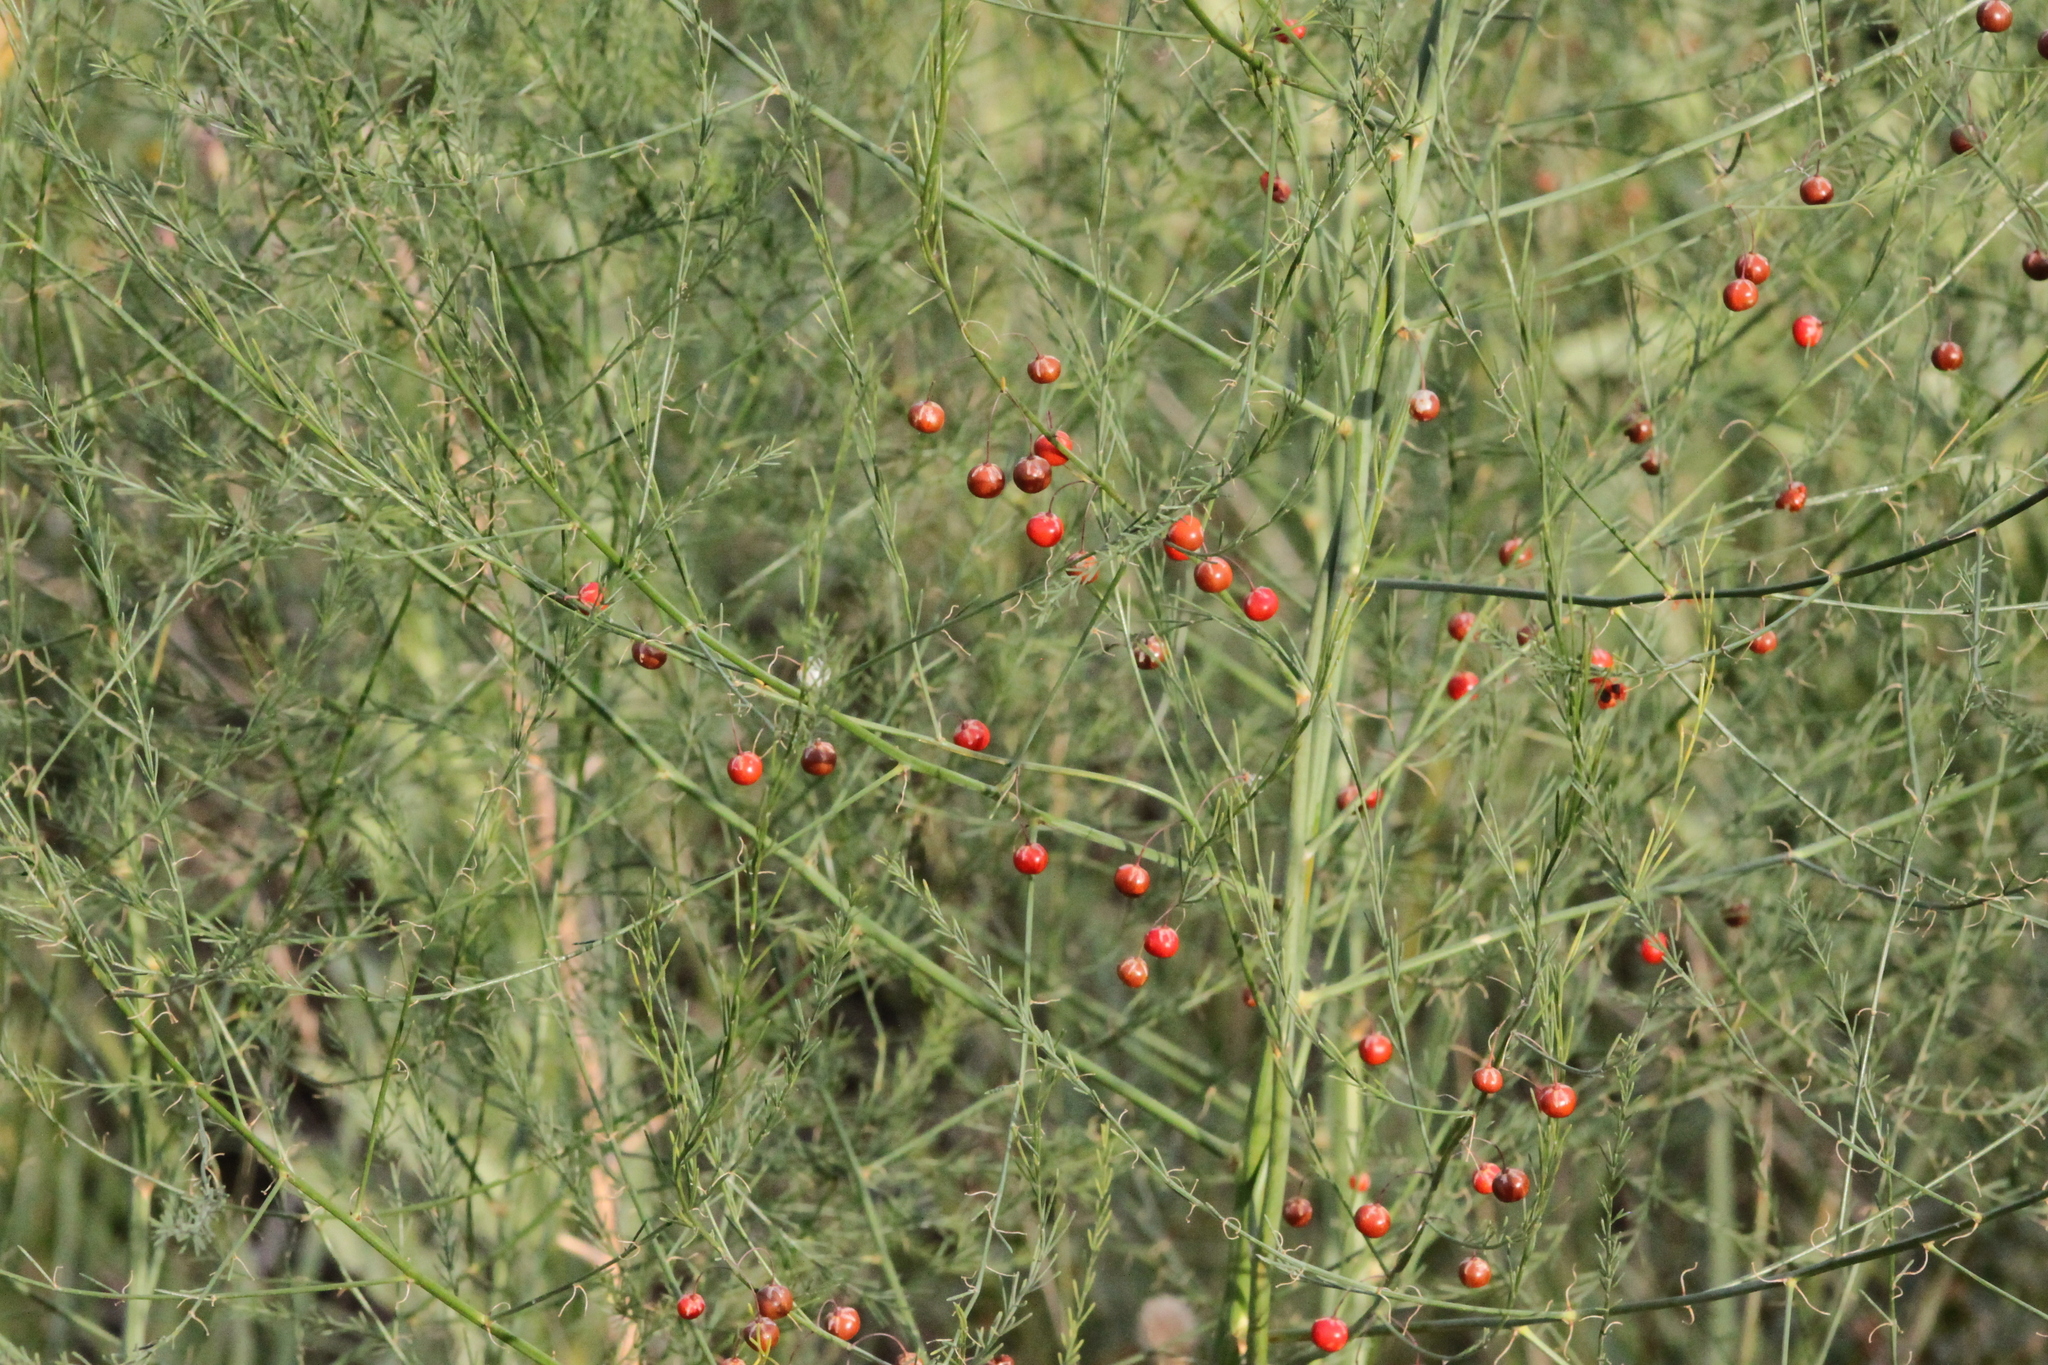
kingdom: Plantae
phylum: Tracheophyta
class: Liliopsida
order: Asparagales
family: Asparagaceae
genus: Asparagus
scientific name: Asparagus officinalis
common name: Garden asparagus
